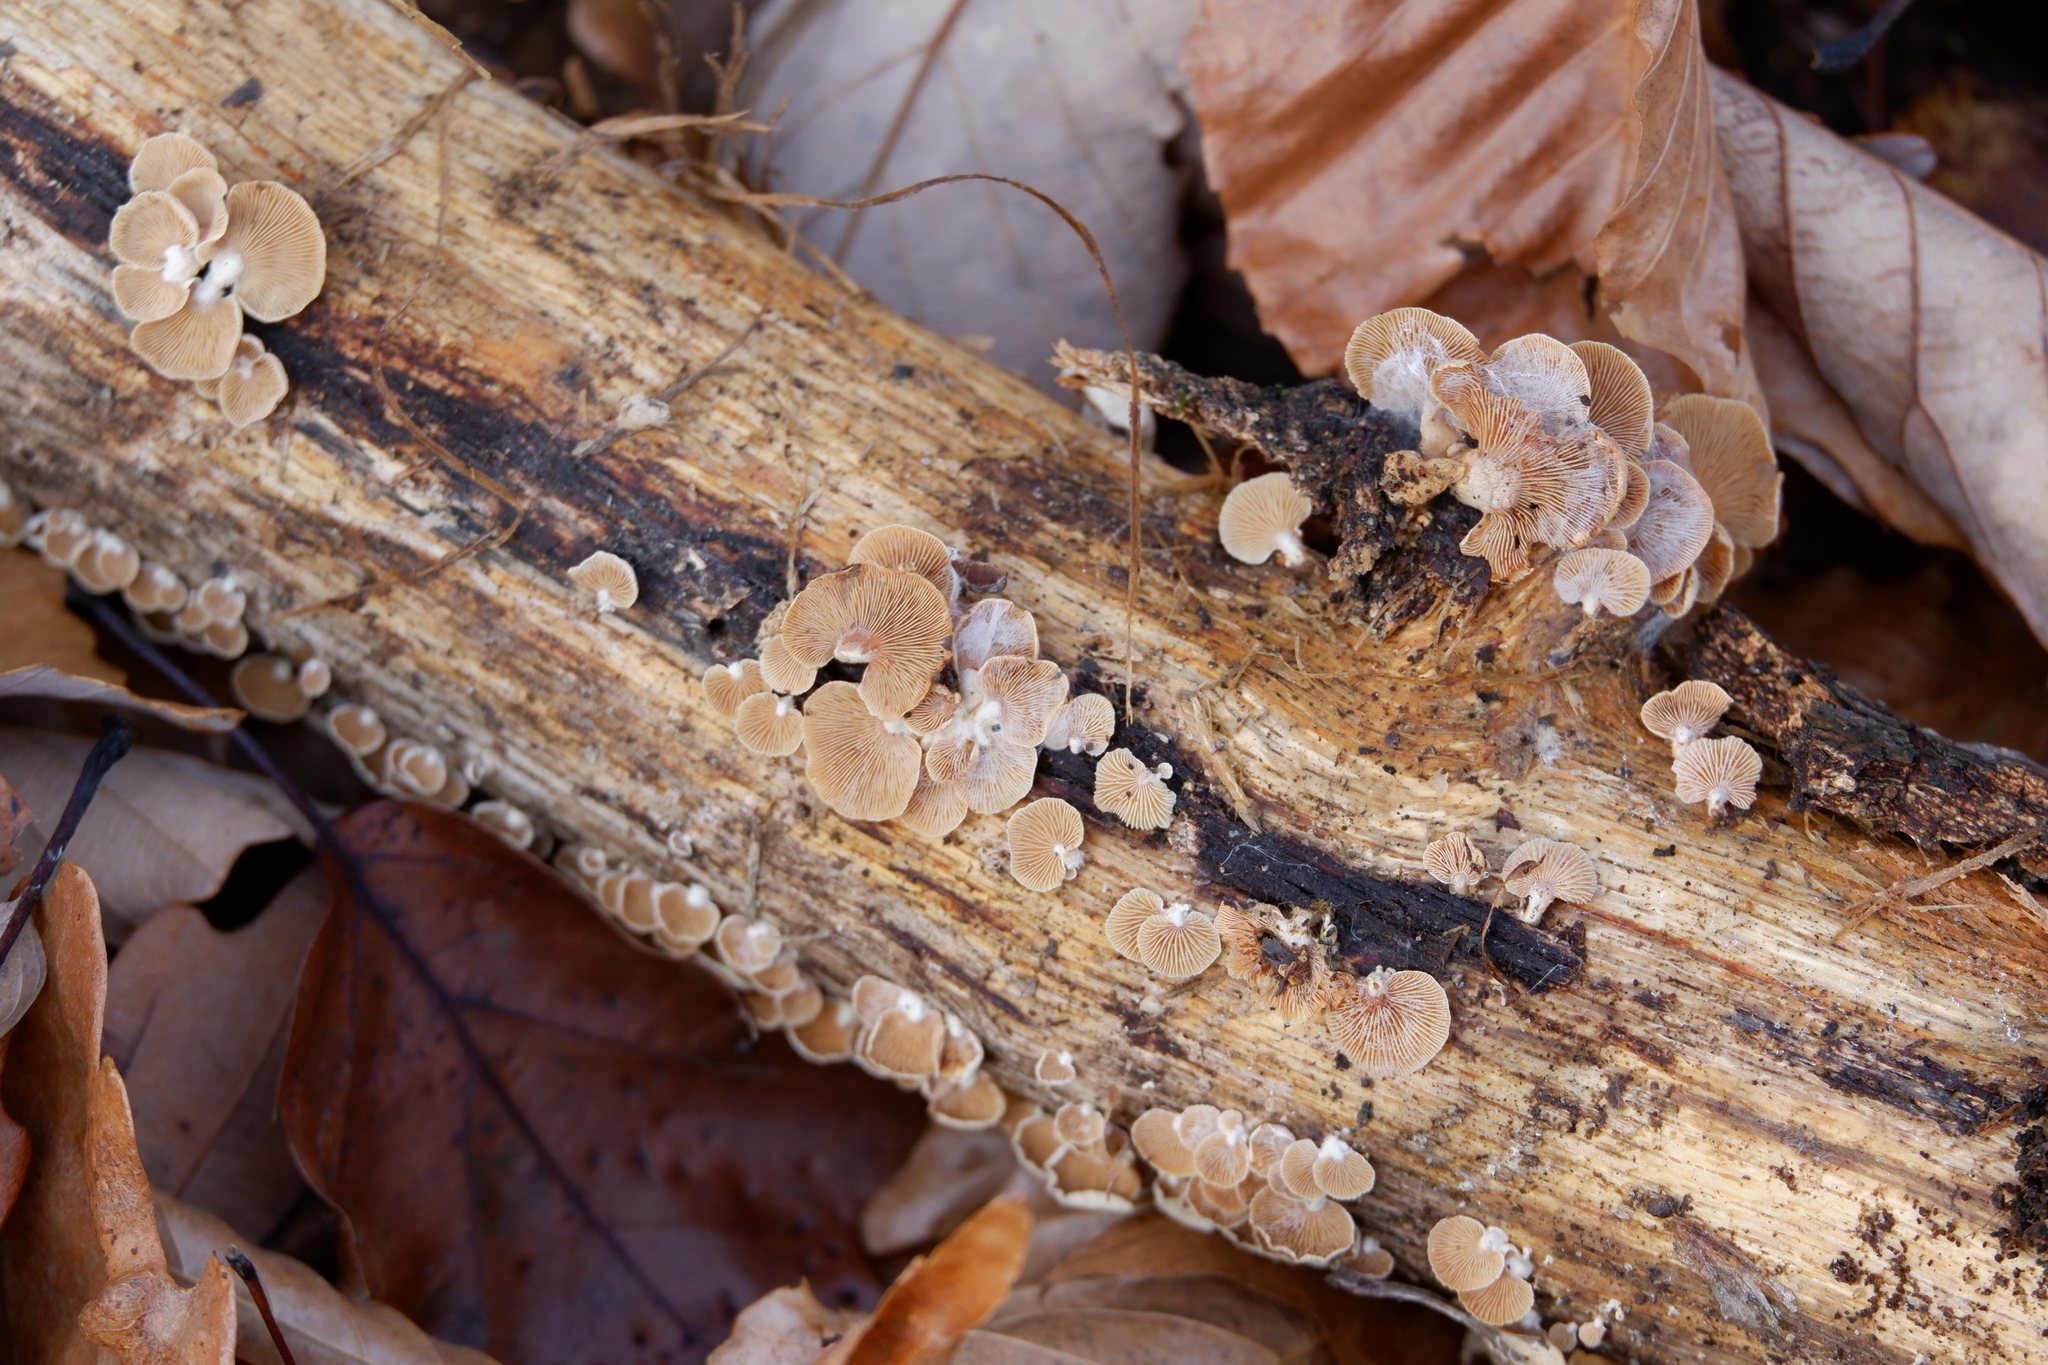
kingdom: Fungi
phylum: Basidiomycota
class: Agaricomycetes
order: Agaricales
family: Mycenaceae
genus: Panellus
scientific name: Panellus stipticus
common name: Bitter oysterling
